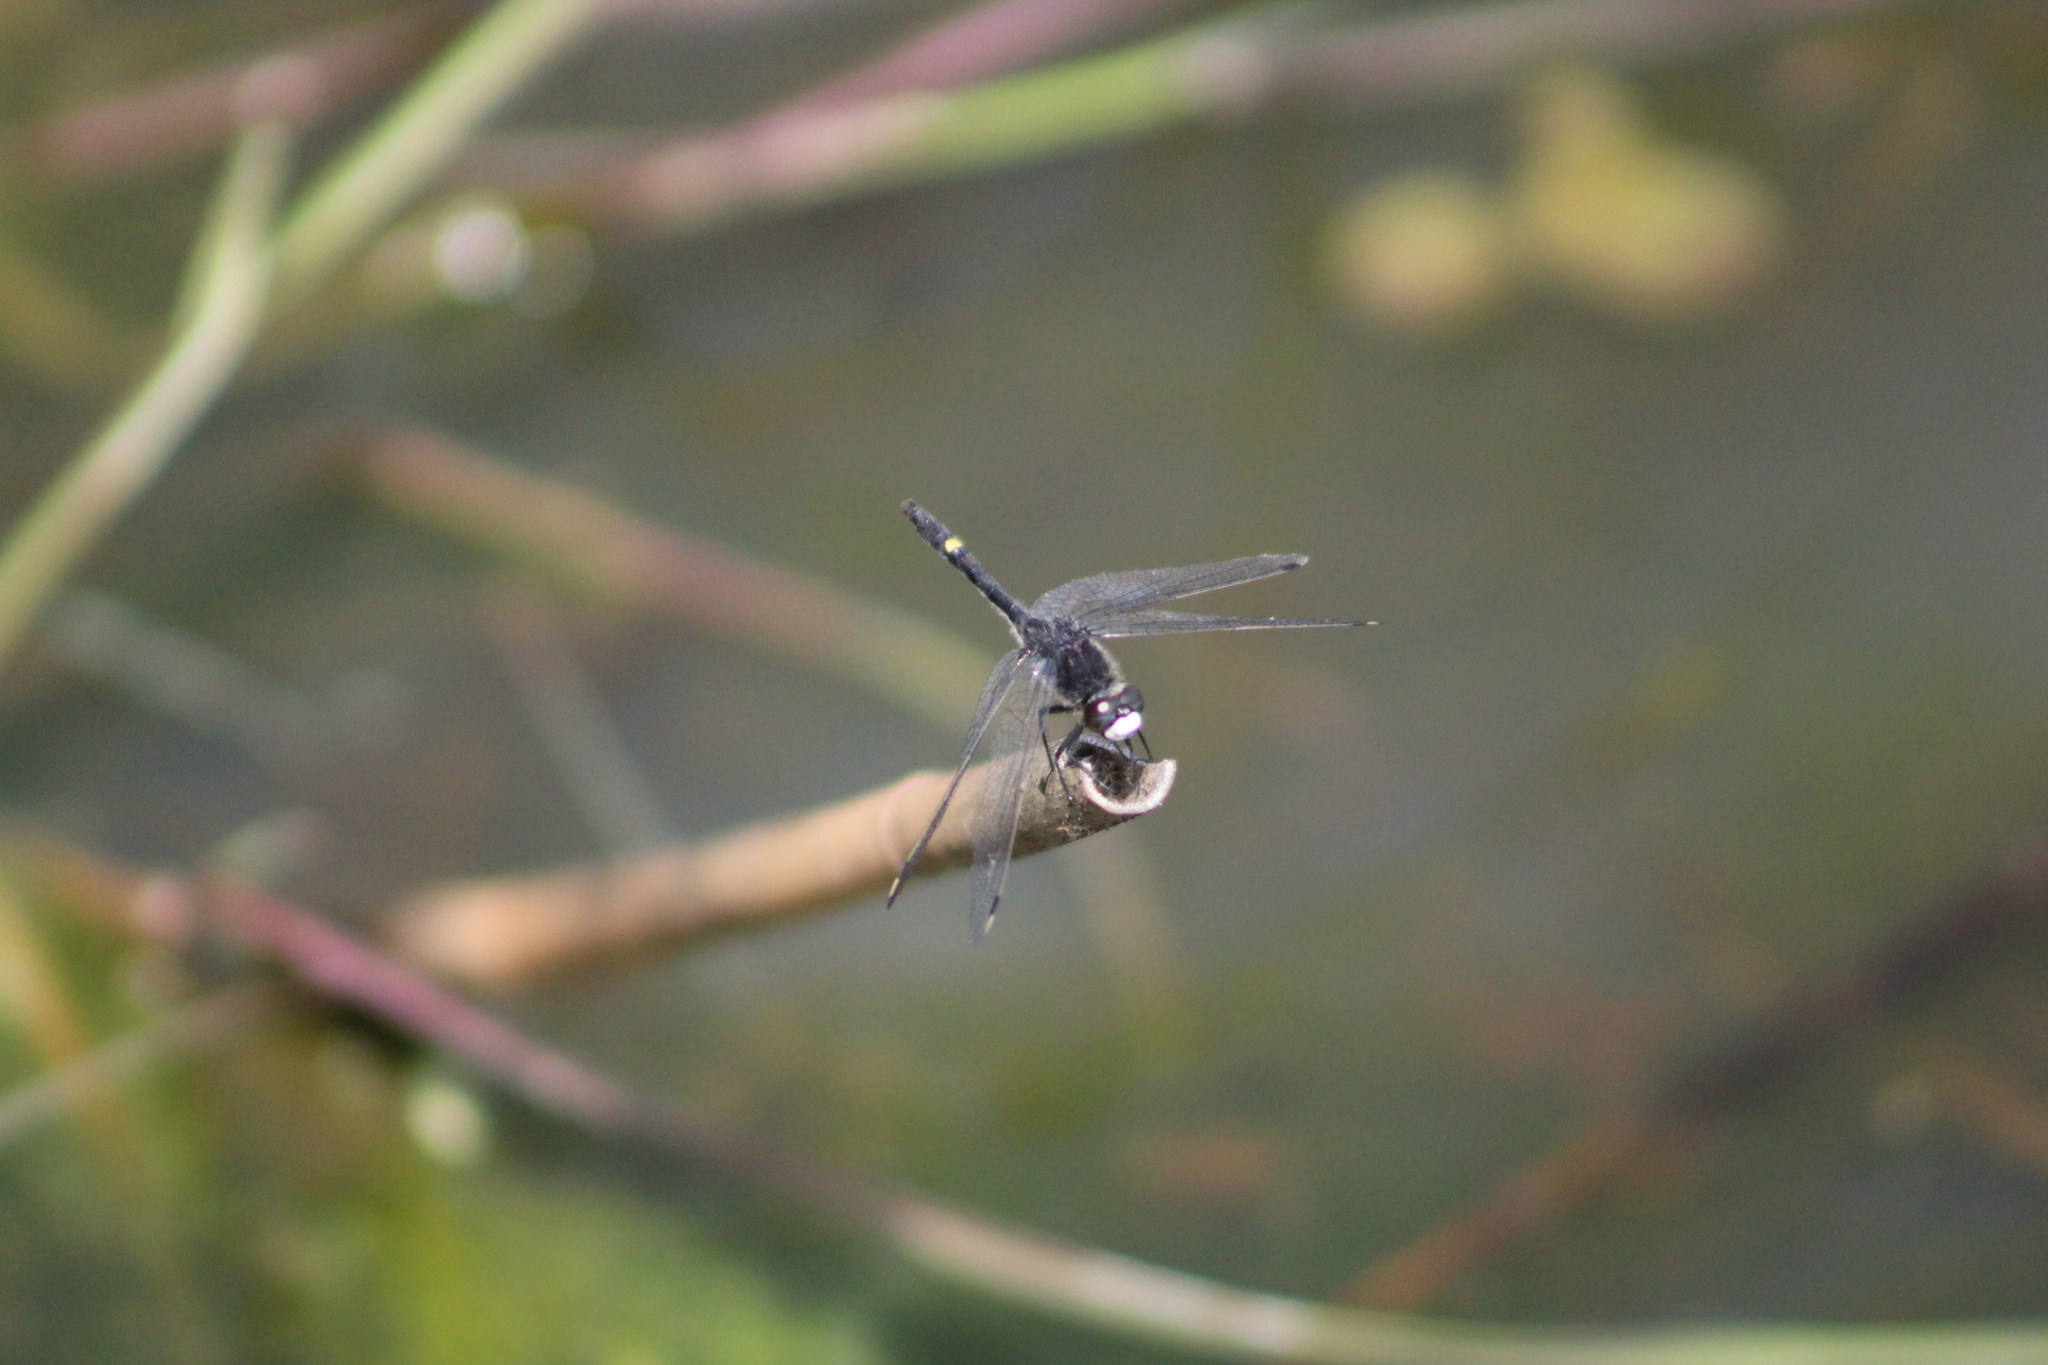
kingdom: Animalia
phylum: Arthropoda
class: Insecta
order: Odonata
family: Libellulidae
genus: Leucorrhinia
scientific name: Leucorrhinia intacta
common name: Dot-tailed whiteface
